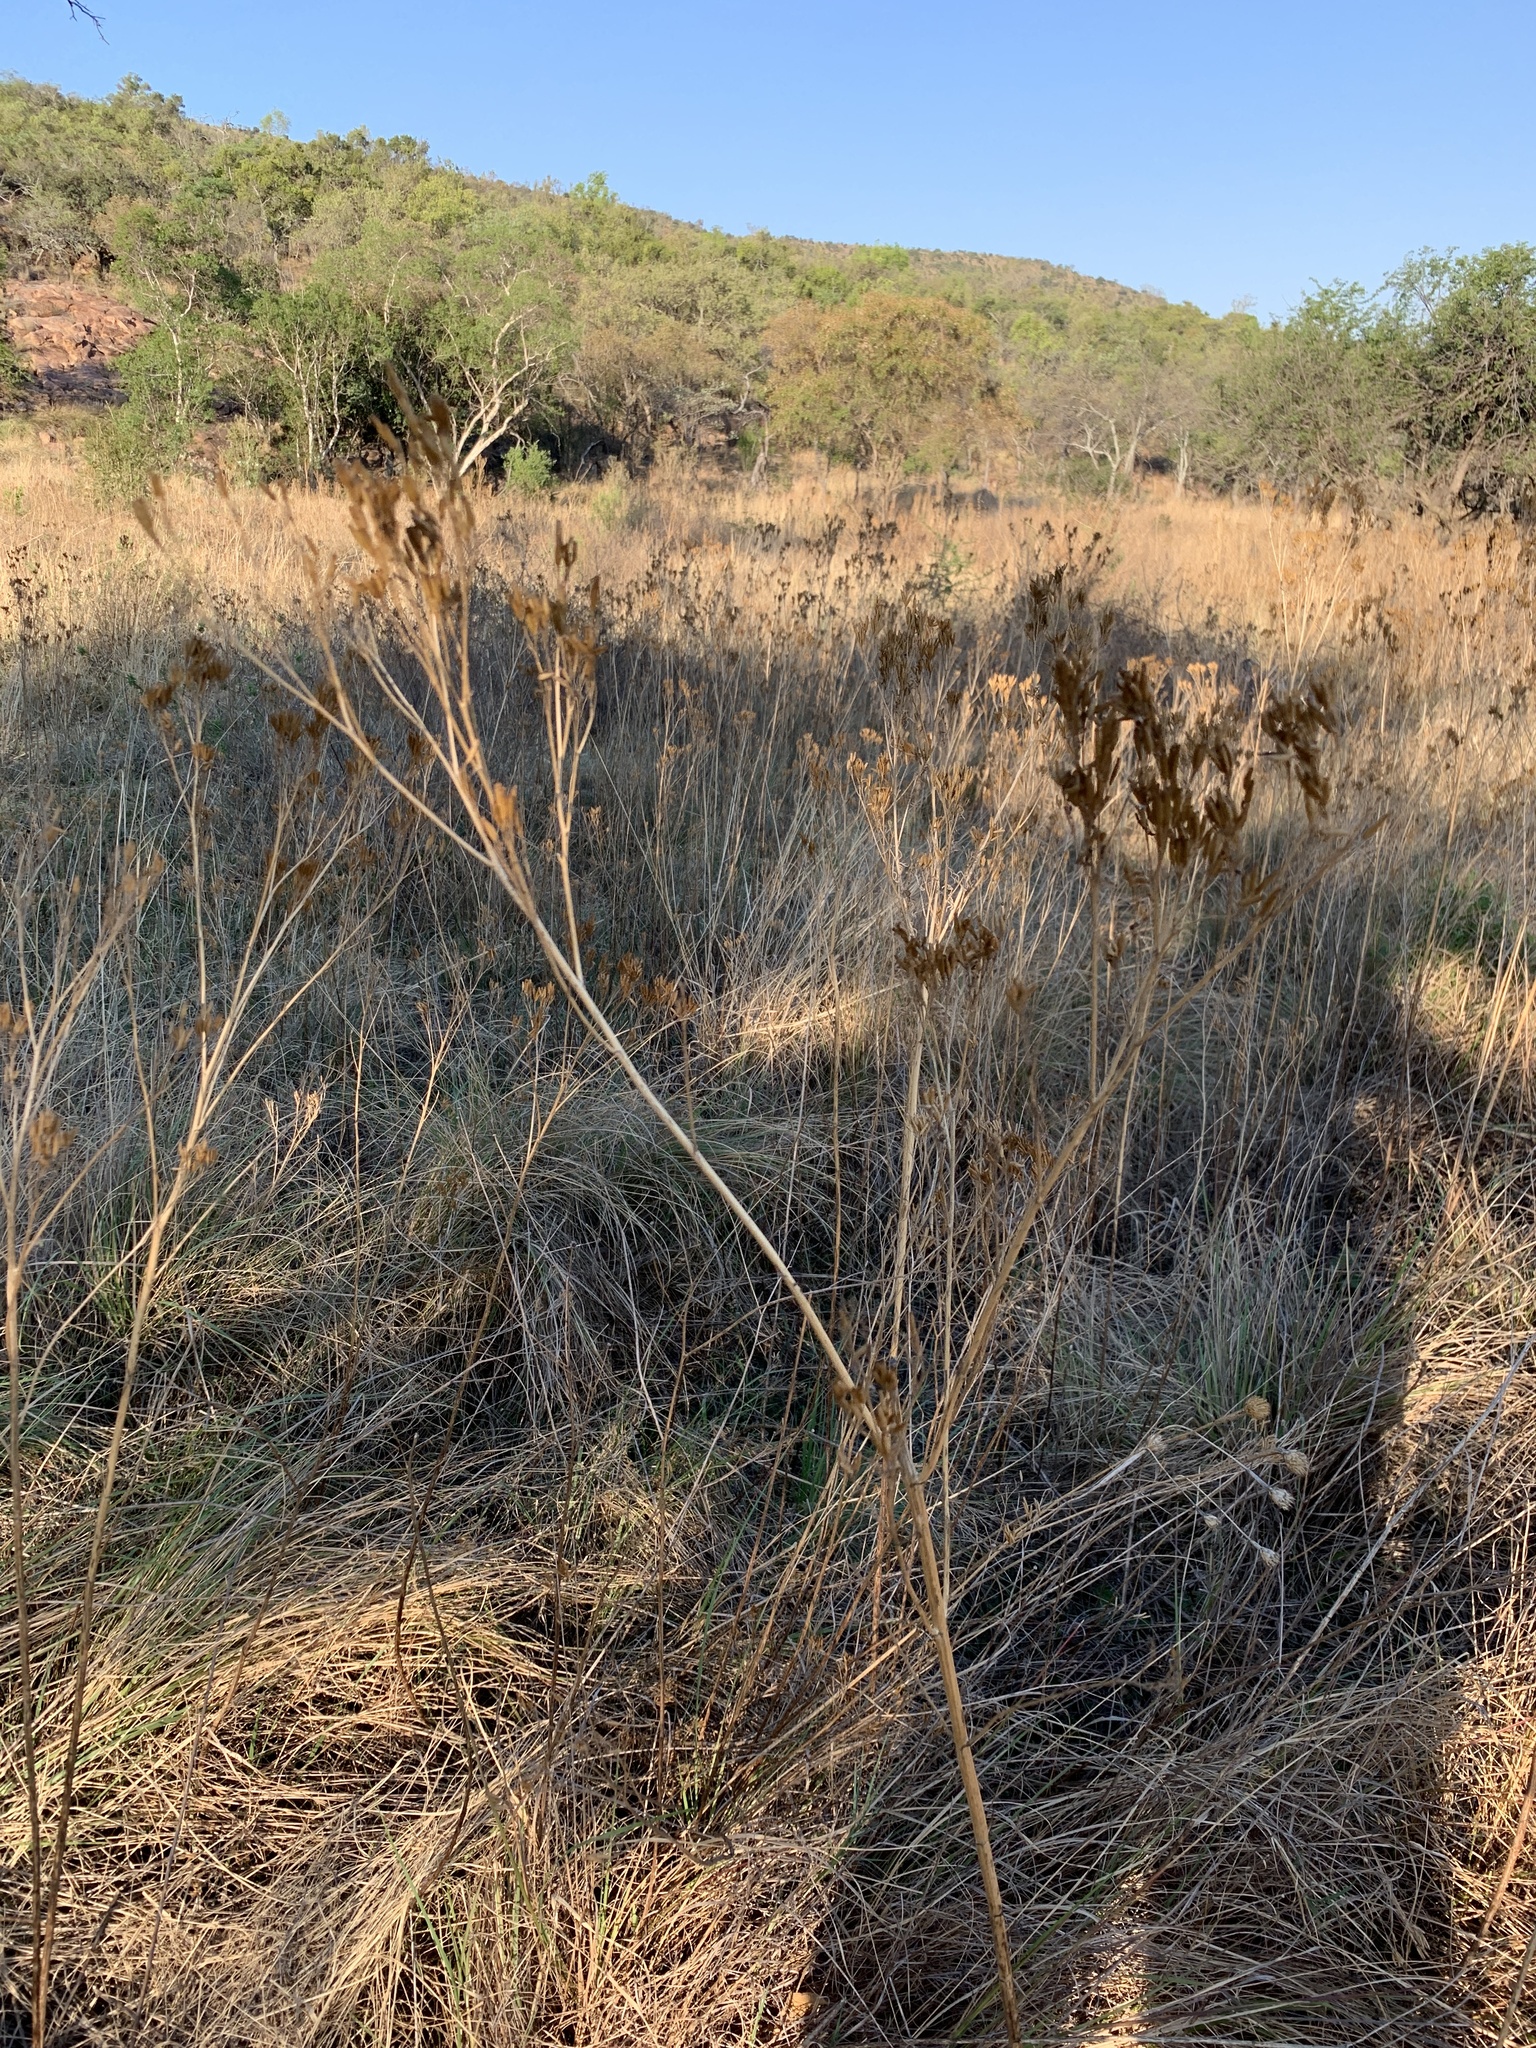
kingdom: Plantae
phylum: Tracheophyta
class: Magnoliopsida
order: Asterales
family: Asteraceae
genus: Tagetes
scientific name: Tagetes minuta
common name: Muster john henry
